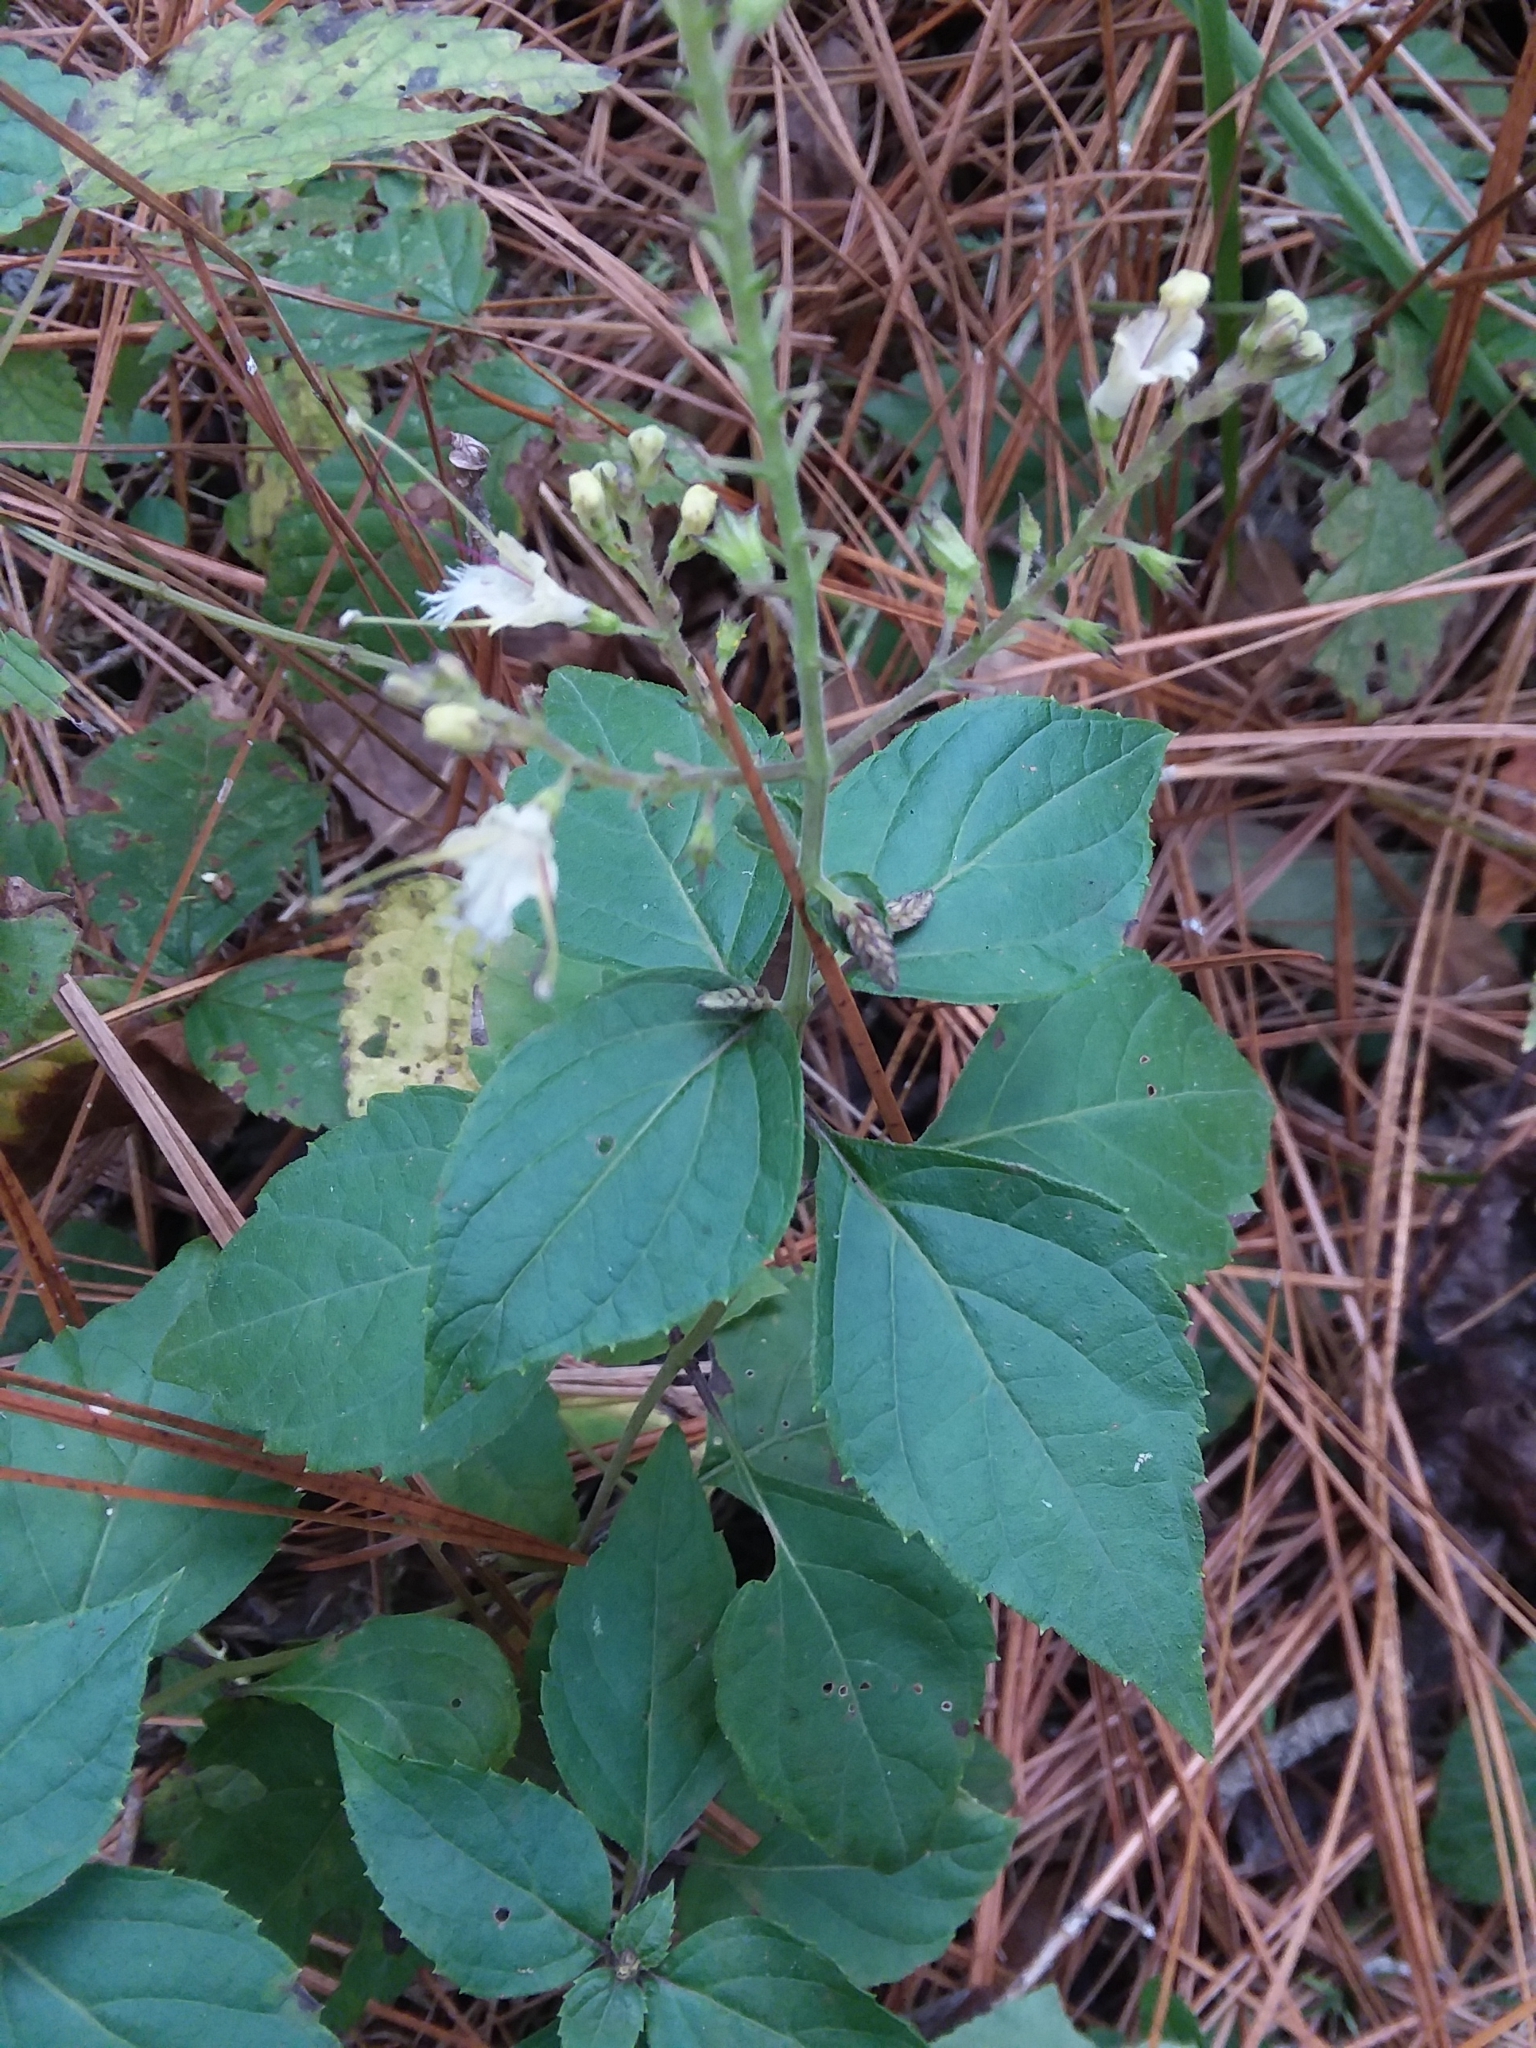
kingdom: Plantae
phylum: Tracheophyta
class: Magnoliopsida
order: Lamiales
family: Lamiaceae
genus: Collinsonia
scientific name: Collinsonia canadensis
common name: Northern horsebalm
